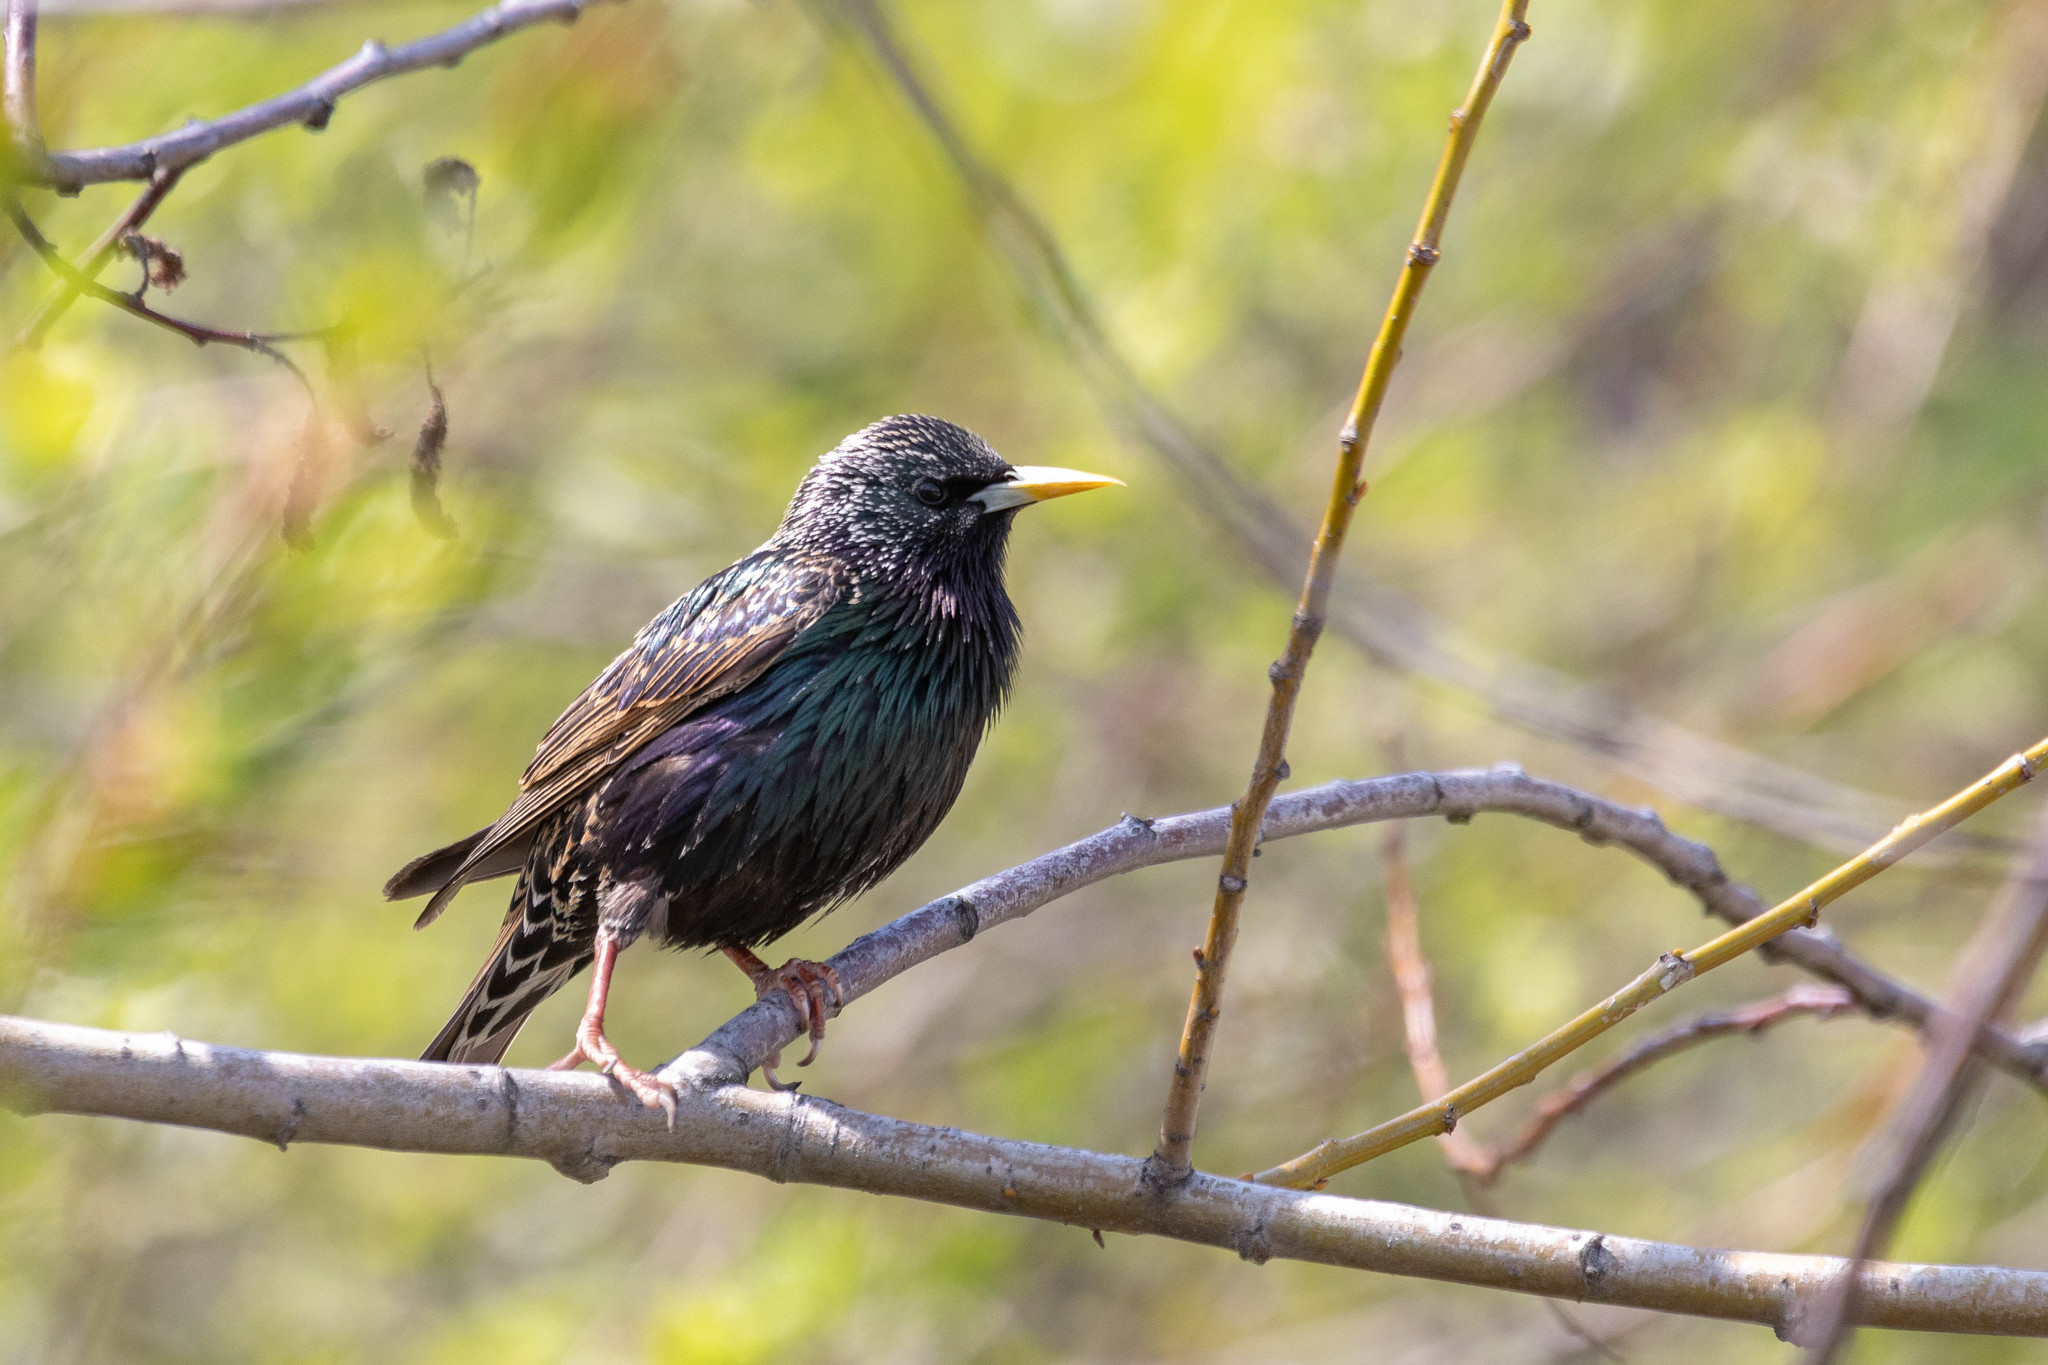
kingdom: Animalia
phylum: Chordata
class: Aves
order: Passeriformes
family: Sturnidae
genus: Sturnus
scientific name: Sturnus vulgaris
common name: Common starling
